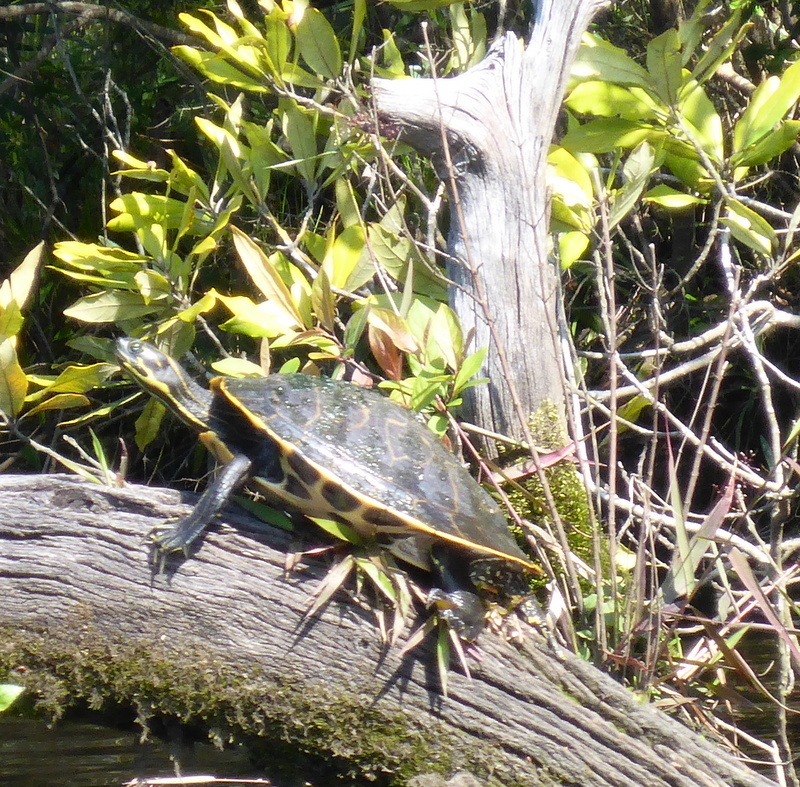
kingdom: Animalia
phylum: Chordata
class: Testudines
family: Emydidae
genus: Pseudemys
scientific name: Pseudemys concinna
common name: Eastern river cooter
